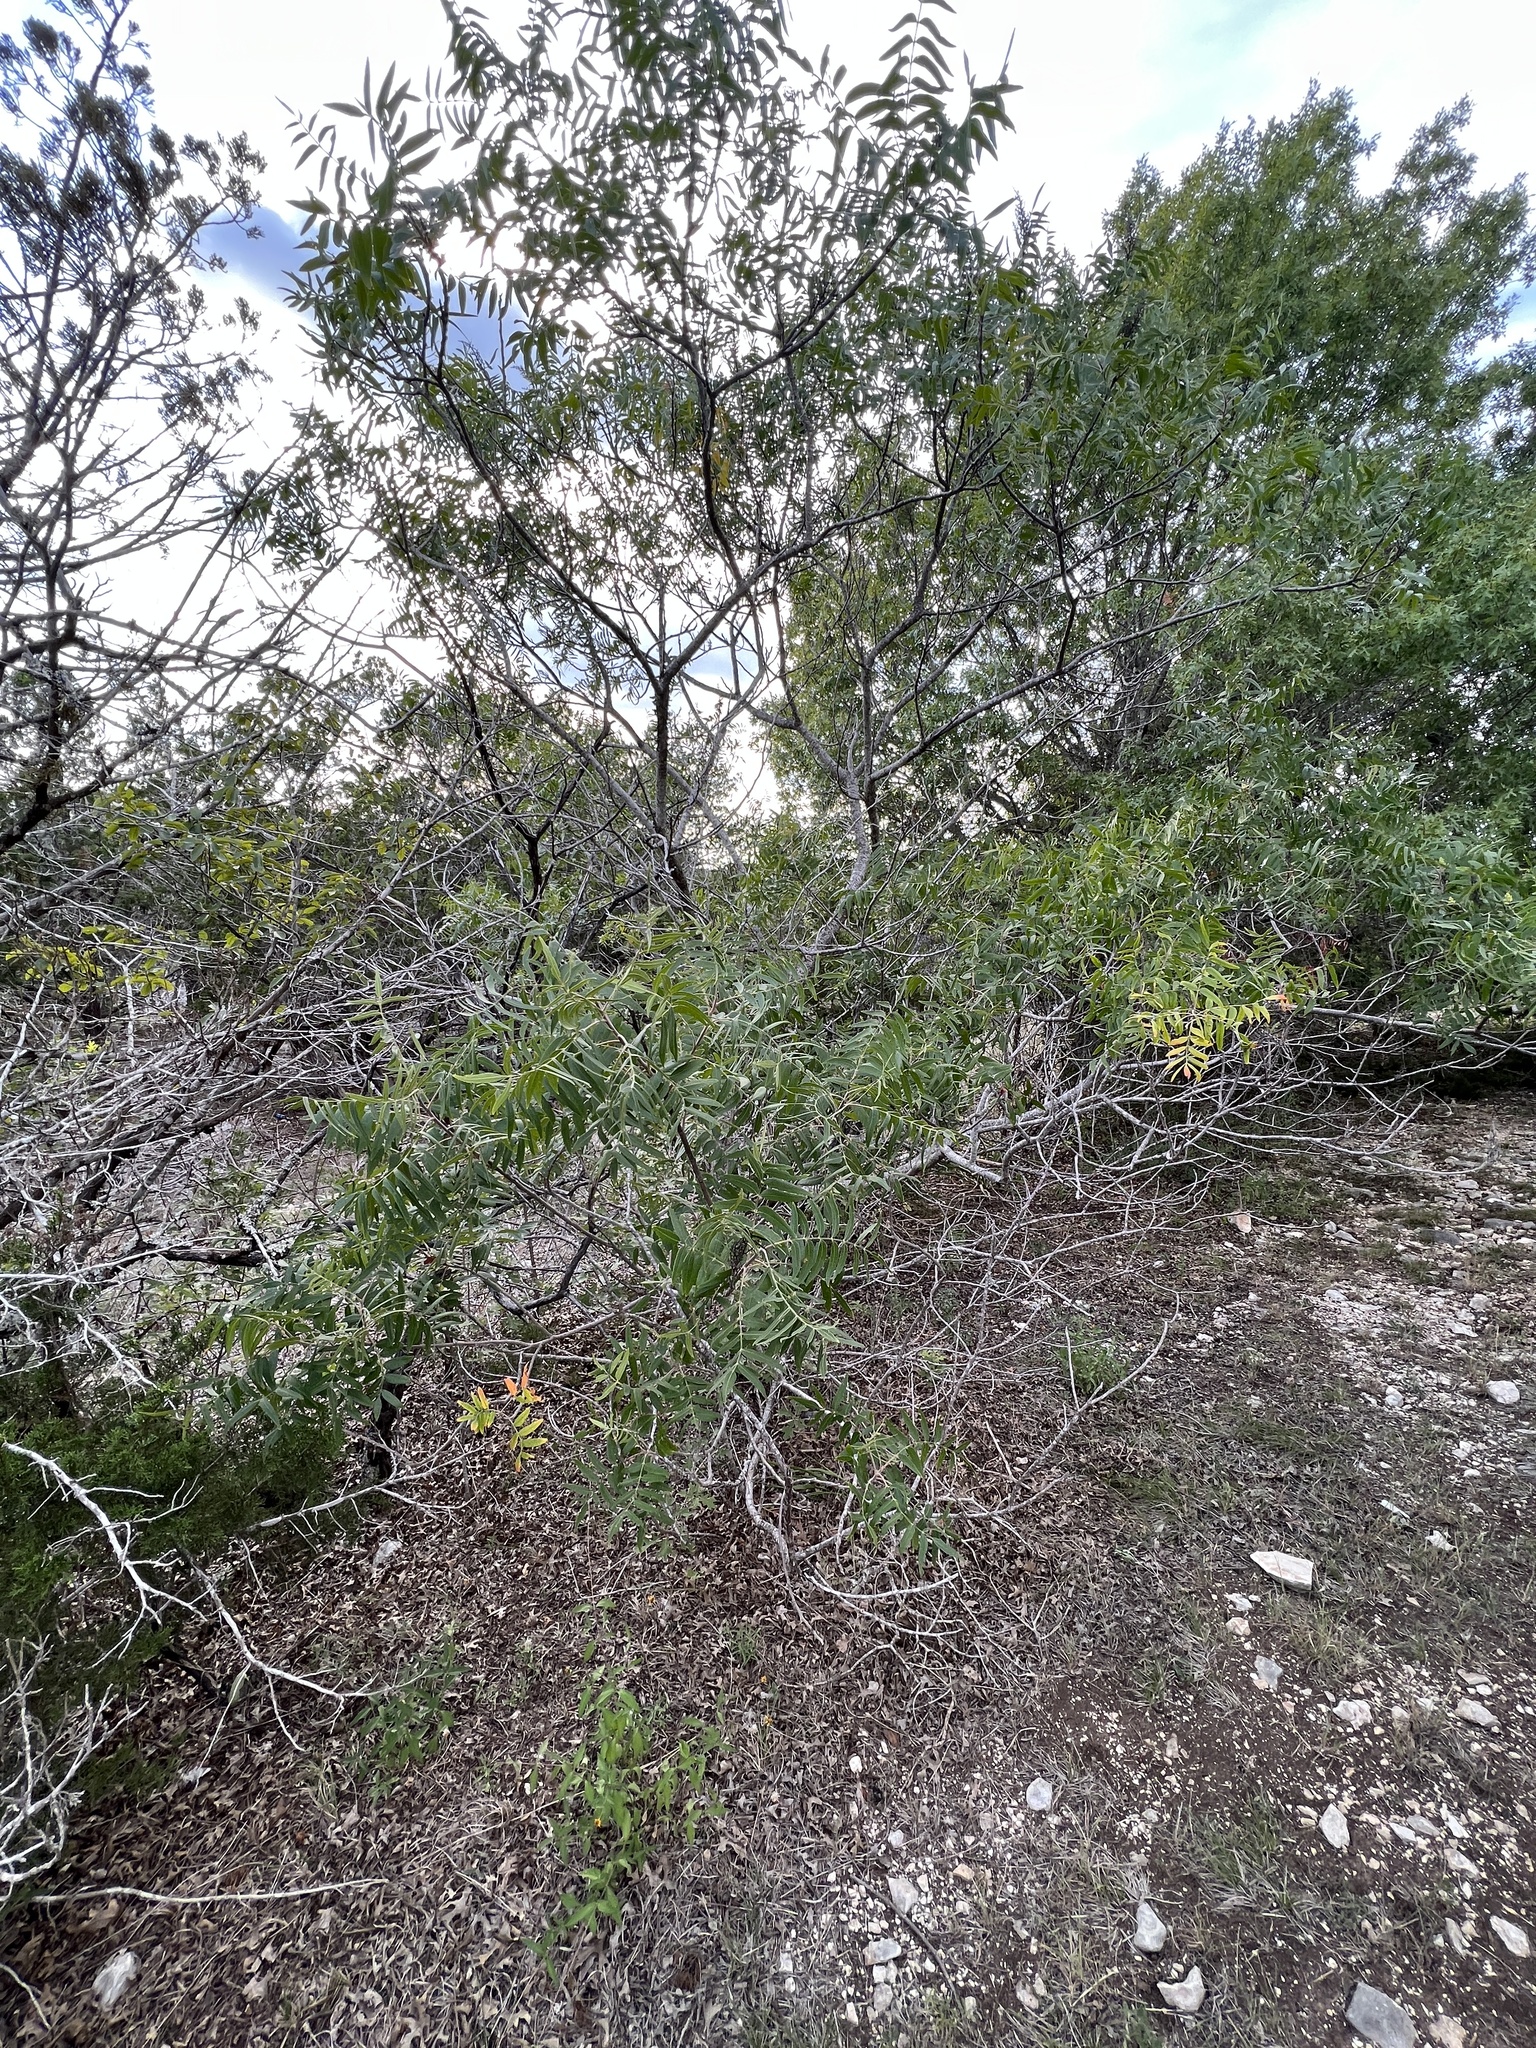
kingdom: Plantae
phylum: Tracheophyta
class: Magnoliopsida
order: Sapindales
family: Anacardiaceae
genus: Rhus
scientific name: Rhus lanceolata
